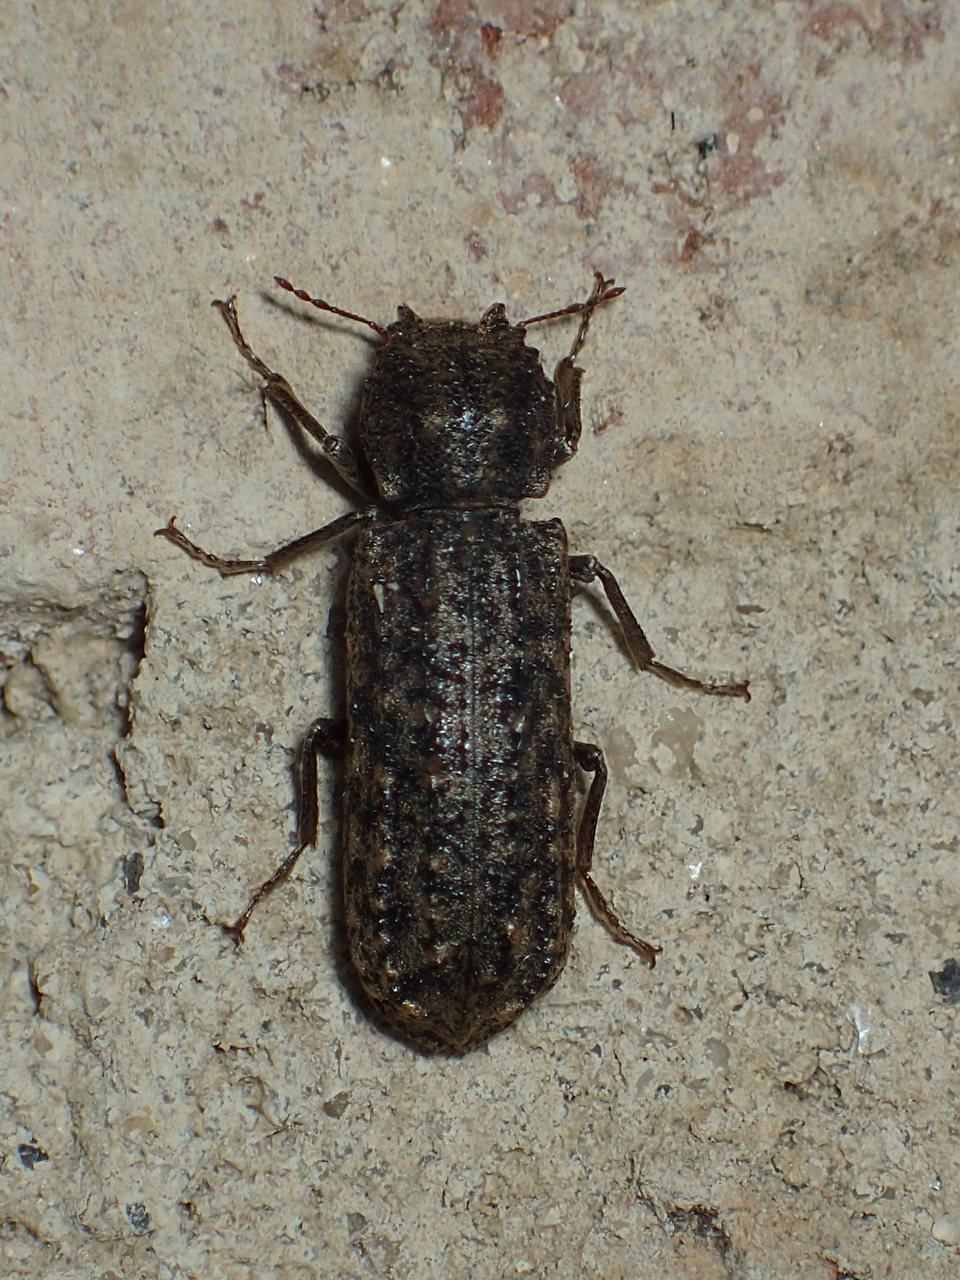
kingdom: Animalia
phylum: Arthropoda
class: Insecta
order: Coleoptera
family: Bostrichidae
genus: Lichenophanes
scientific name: Lichenophanes bicornis
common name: Two-horned powder-post beetle
